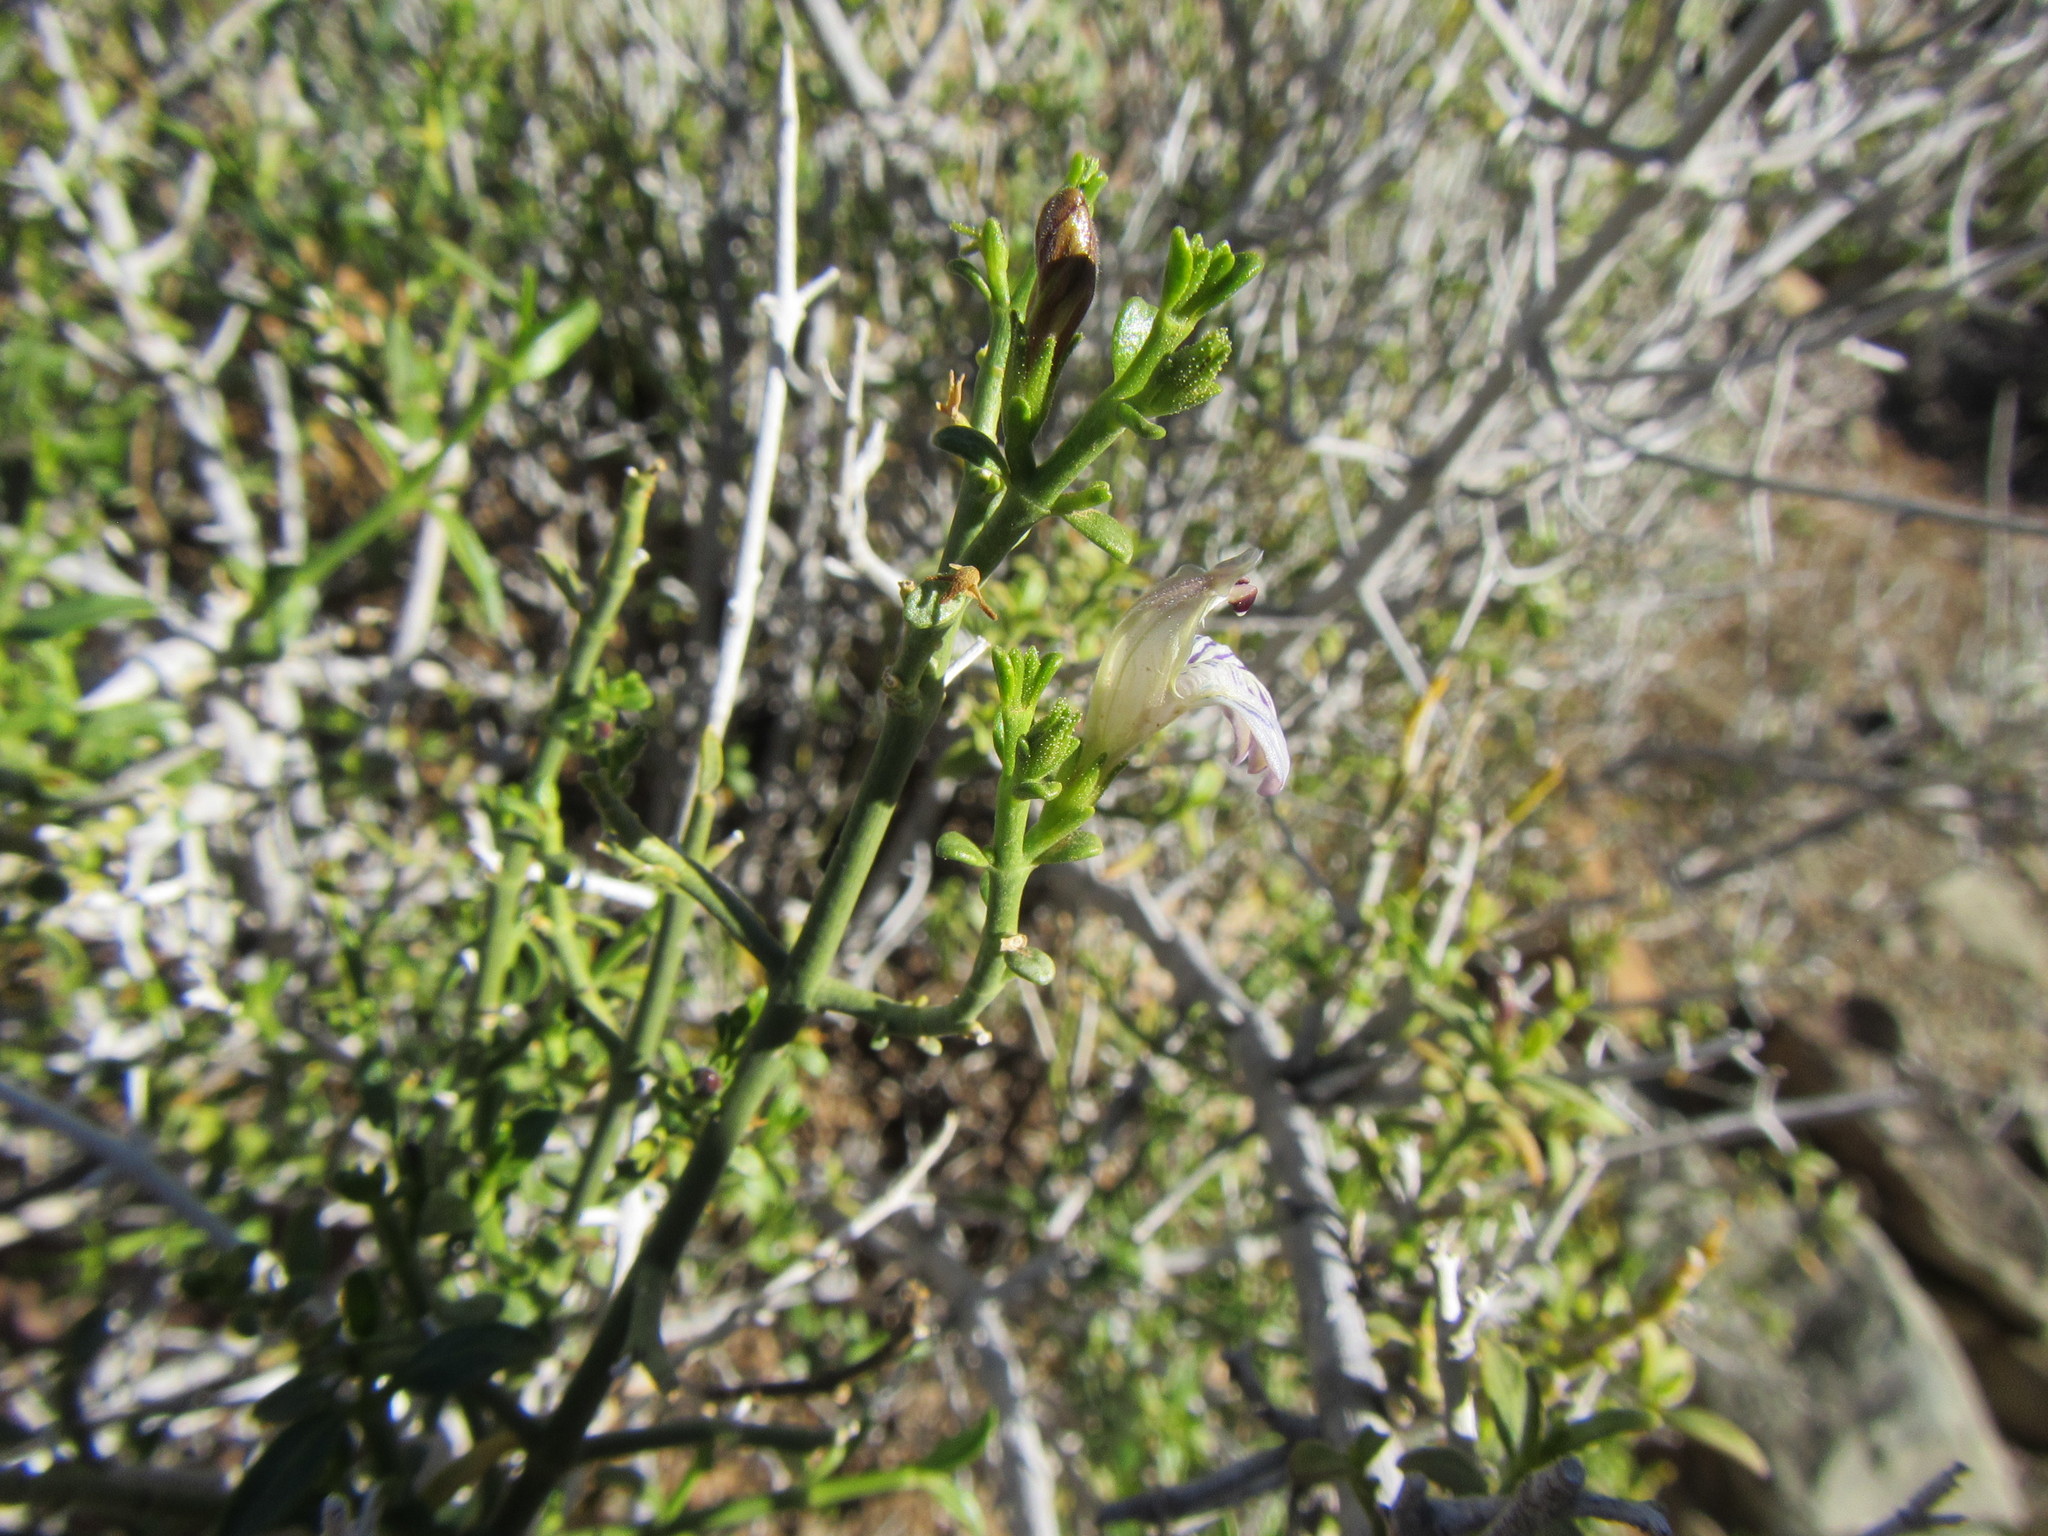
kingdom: Plantae
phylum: Tracheophyta
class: Magnoliopsida
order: Lamiales
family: Acanthaceae
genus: Pogonospermum
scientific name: Pogonospermum
